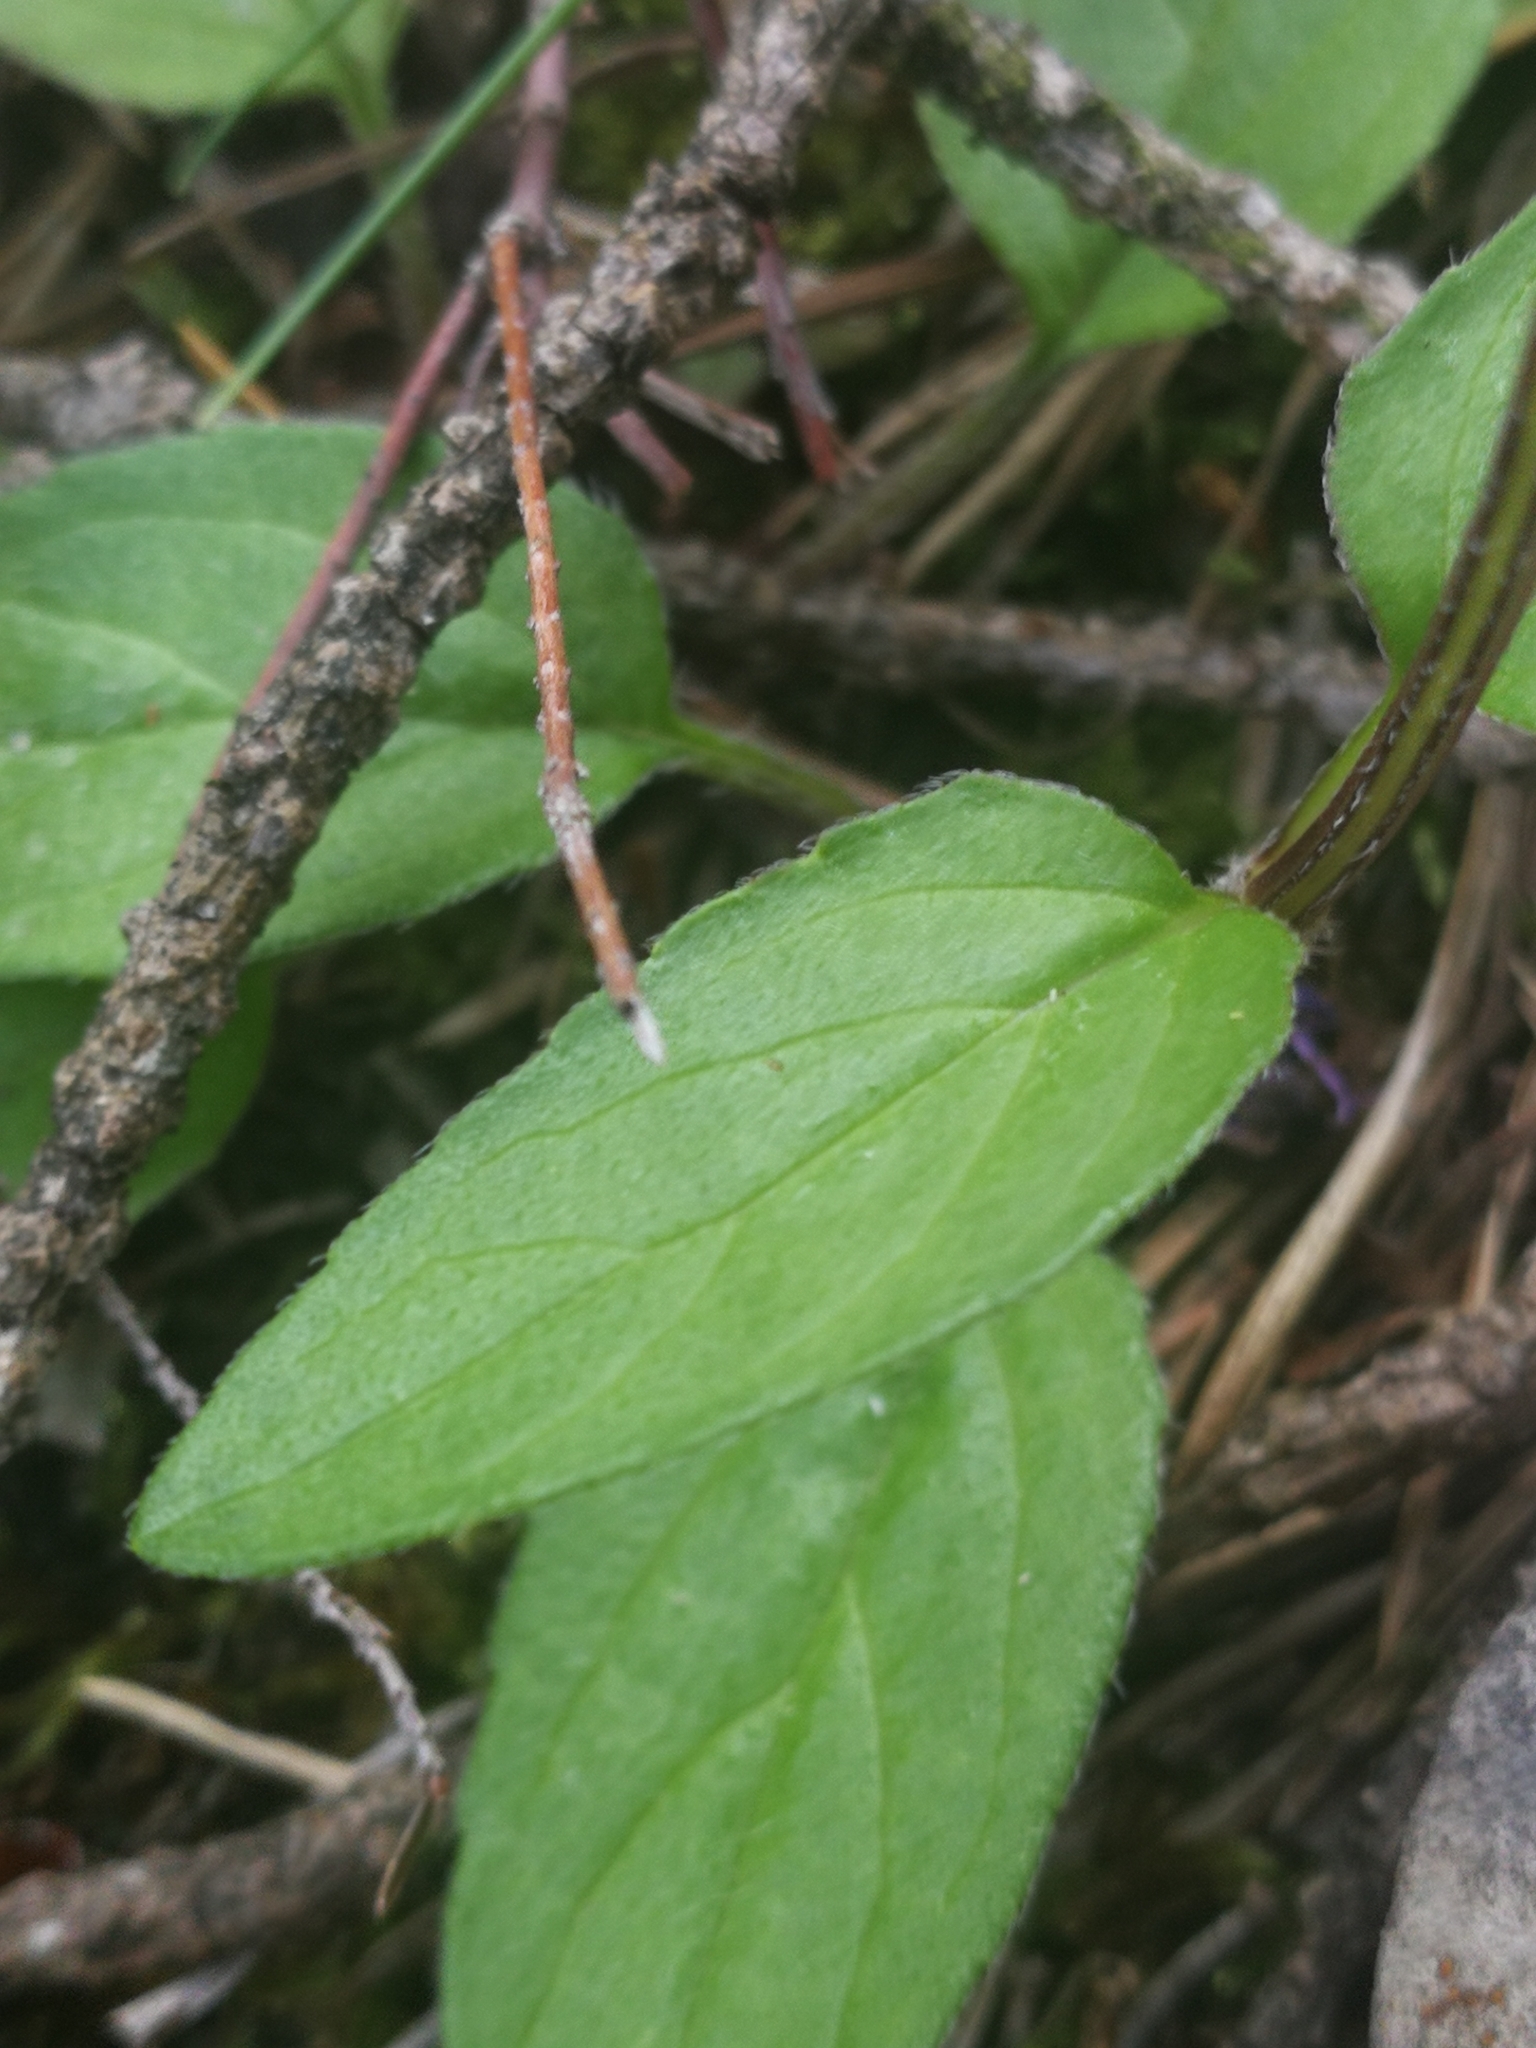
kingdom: Plantae
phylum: Tracheophyta
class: Magnoliopsida
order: Lamiales
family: Lamiaceae
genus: Prunella
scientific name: Prunella grandiflora
